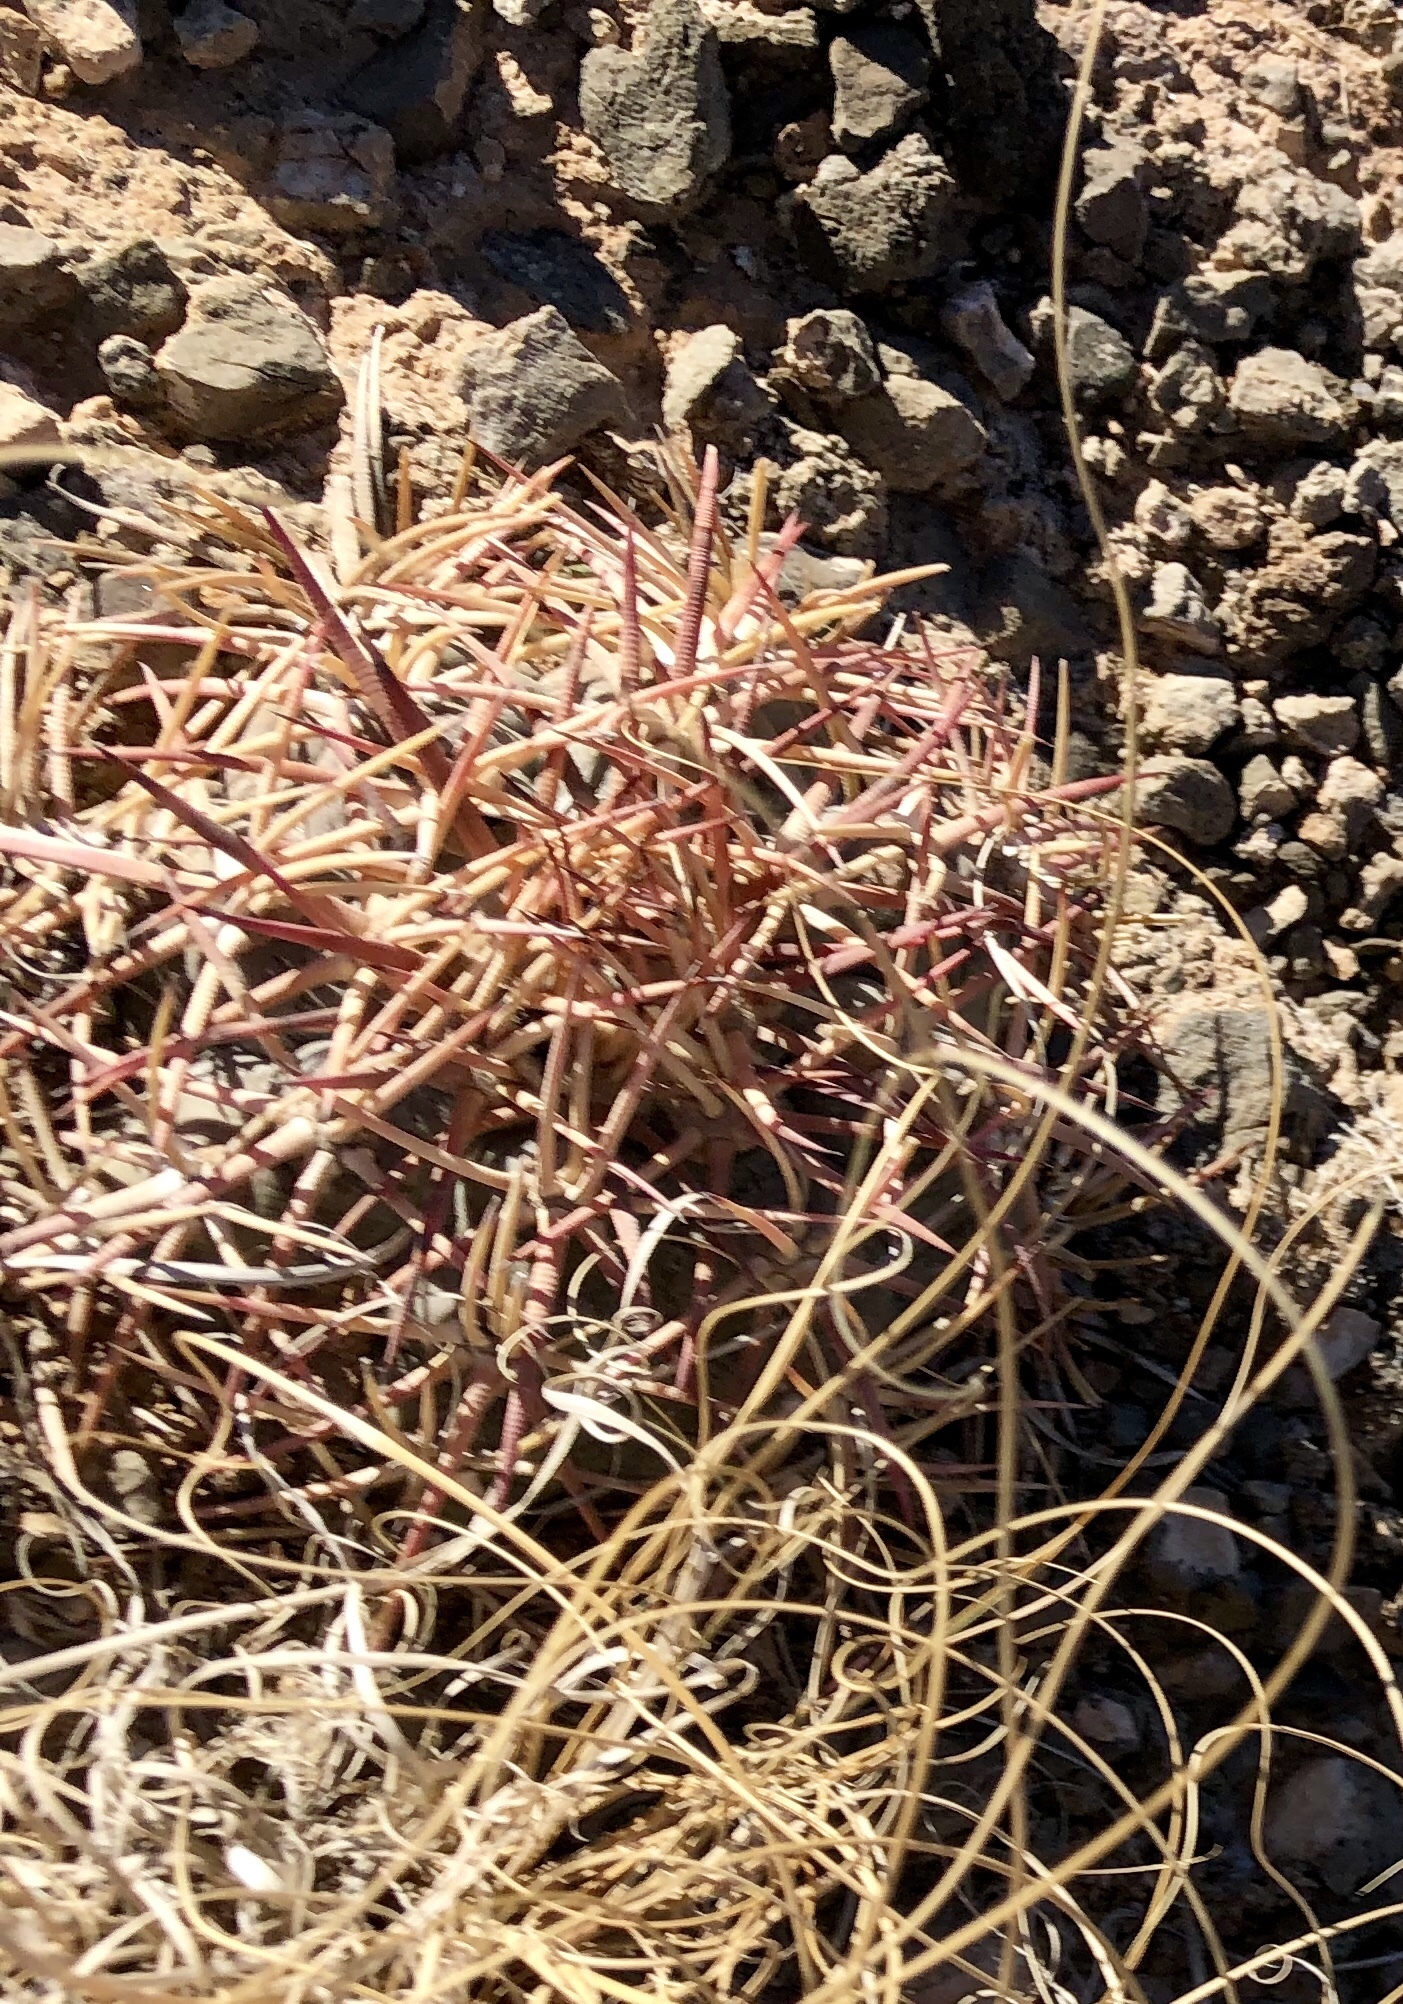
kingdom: Plantae
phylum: Tracheophyta
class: Magnoliopsida
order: Caryophyllales
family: Cactaceae
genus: Echinocactus
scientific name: Echinocactus horizonthalonius
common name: Devilshead
